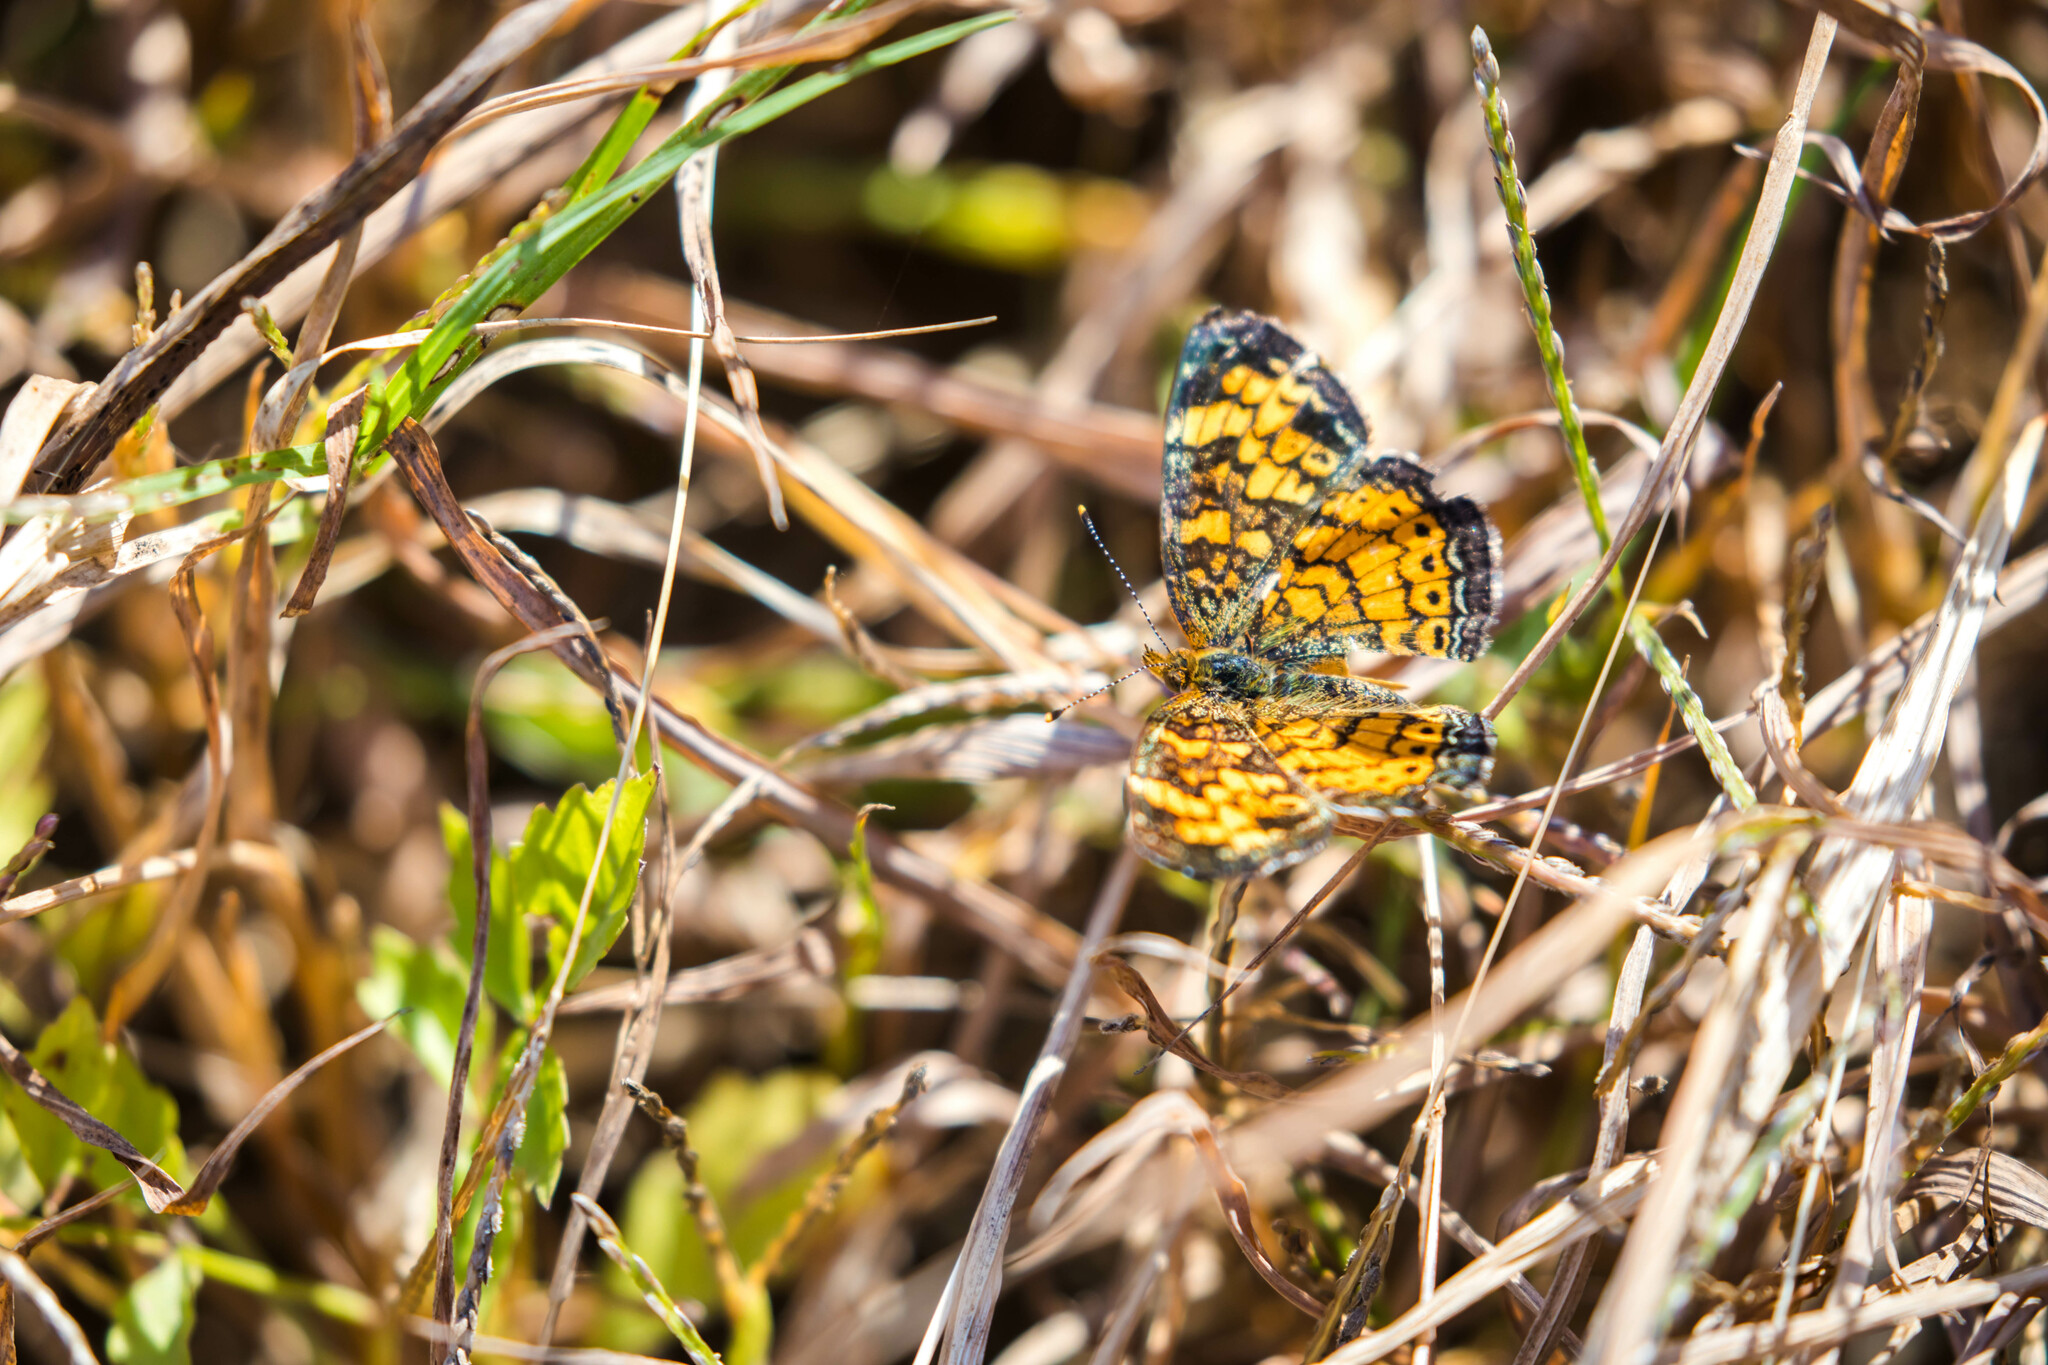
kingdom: Animalia
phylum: Arthropoda
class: Insecta
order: Lepidoptera
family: Nymphalidae
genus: Phyciodes
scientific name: Phyciodes tharos
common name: Pearl crescent
